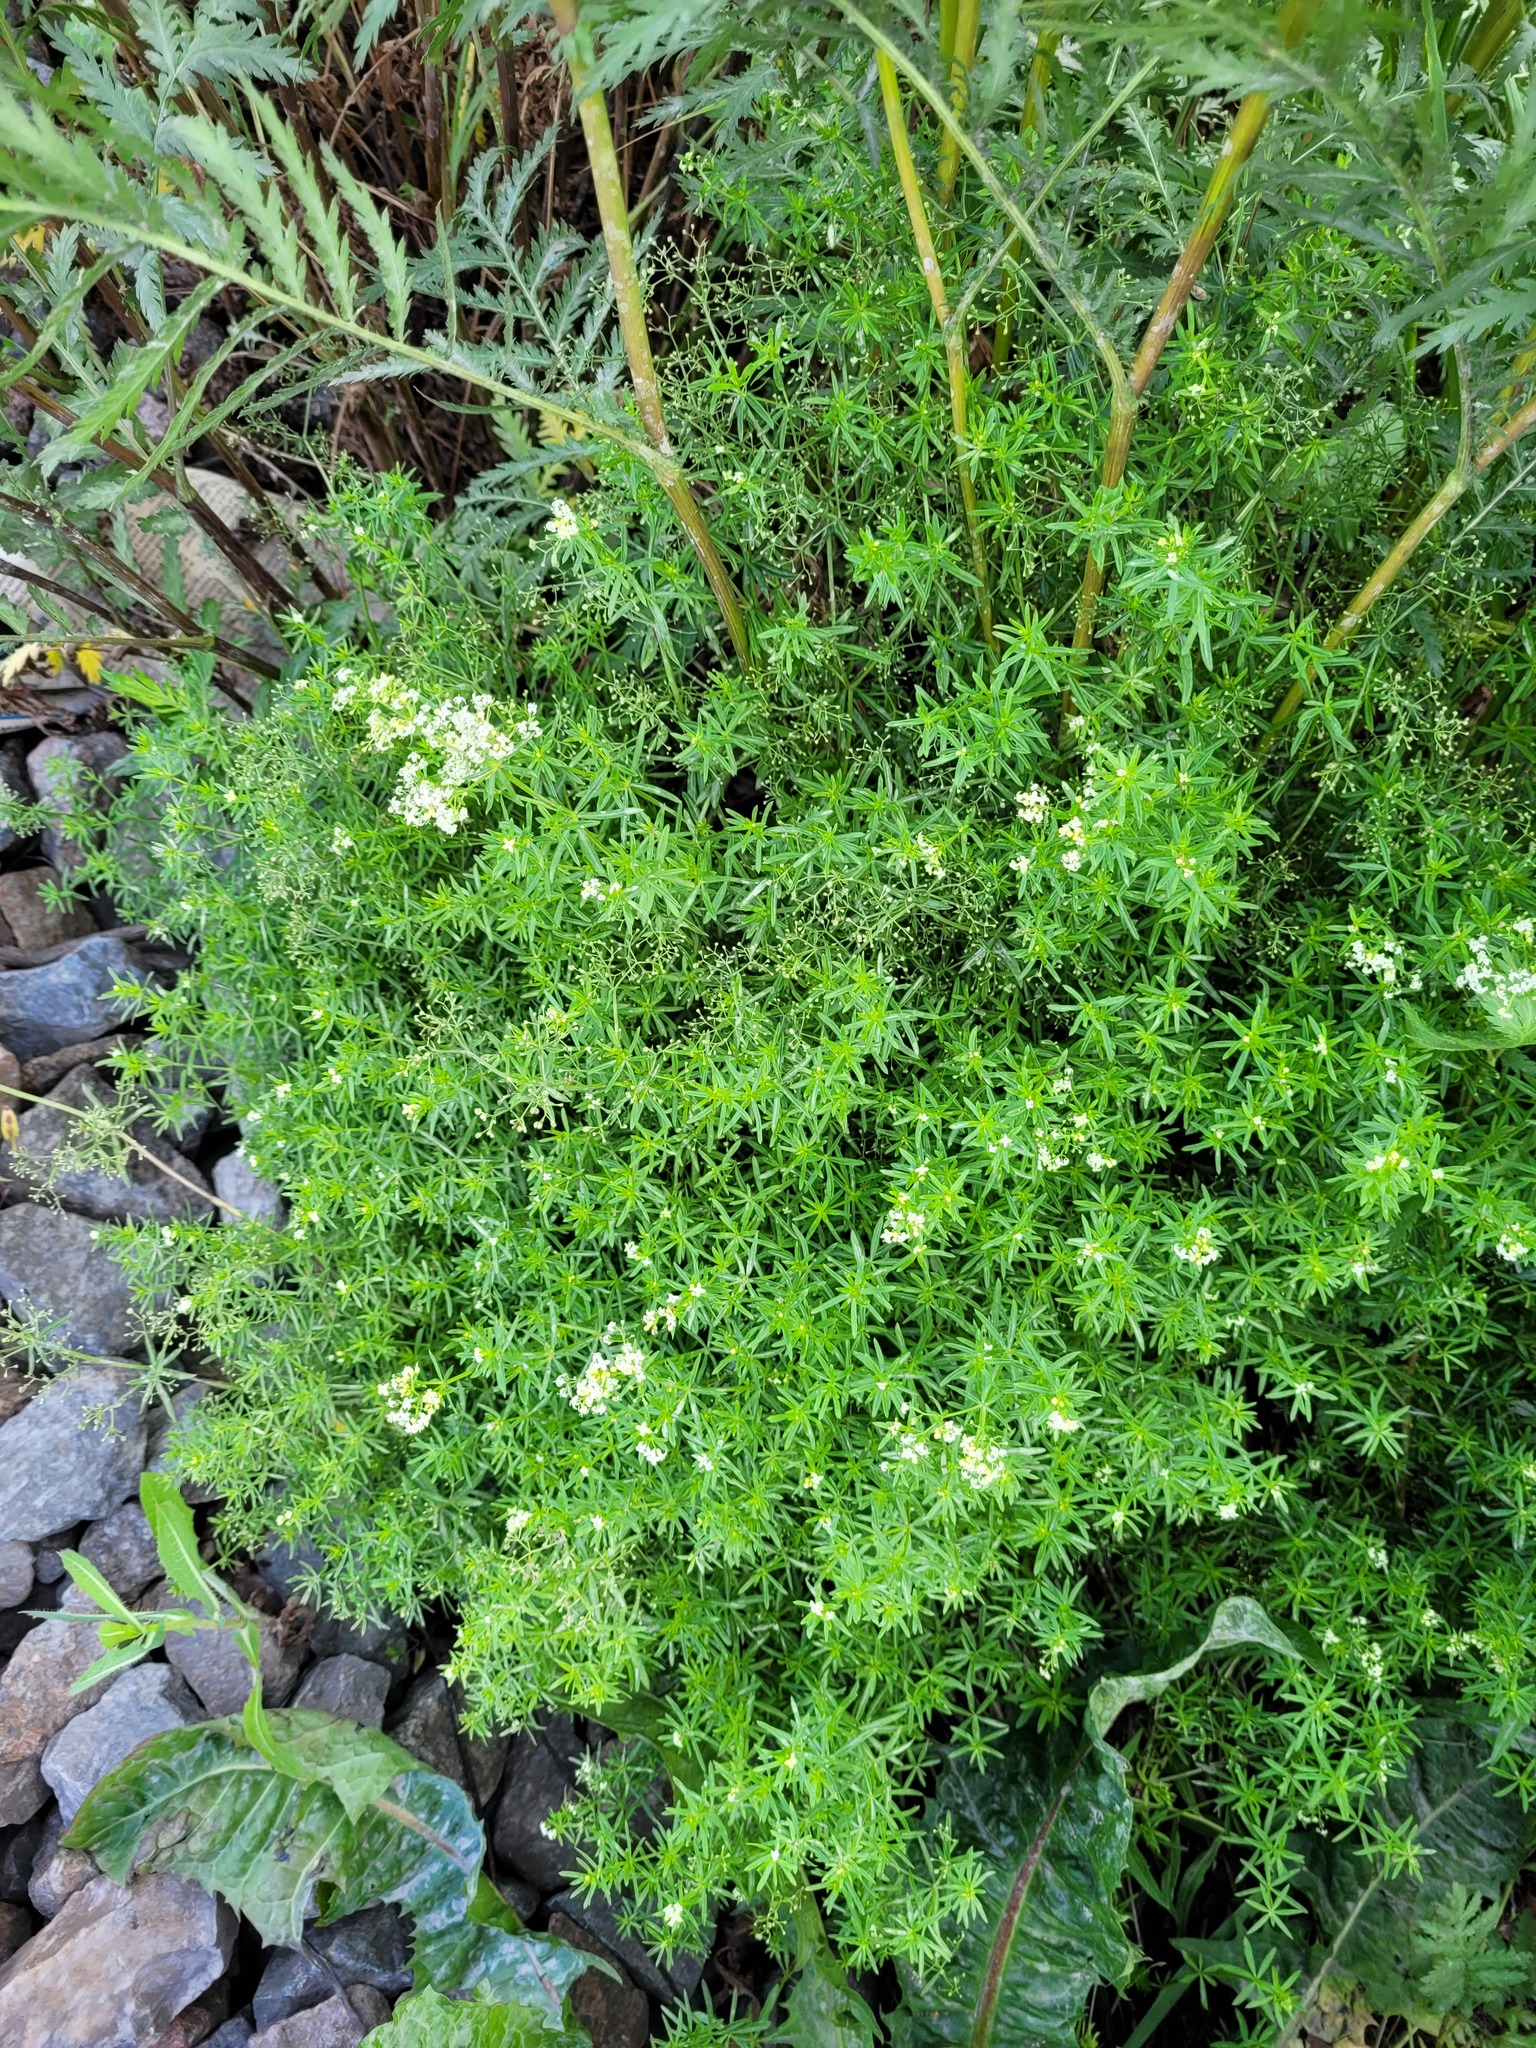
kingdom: Plantae
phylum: Tracheophyta
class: Magnoliopsida
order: Gentianales
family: Rubiaceae
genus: Galium
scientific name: Galium mollugo
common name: Hedge bedstraw
